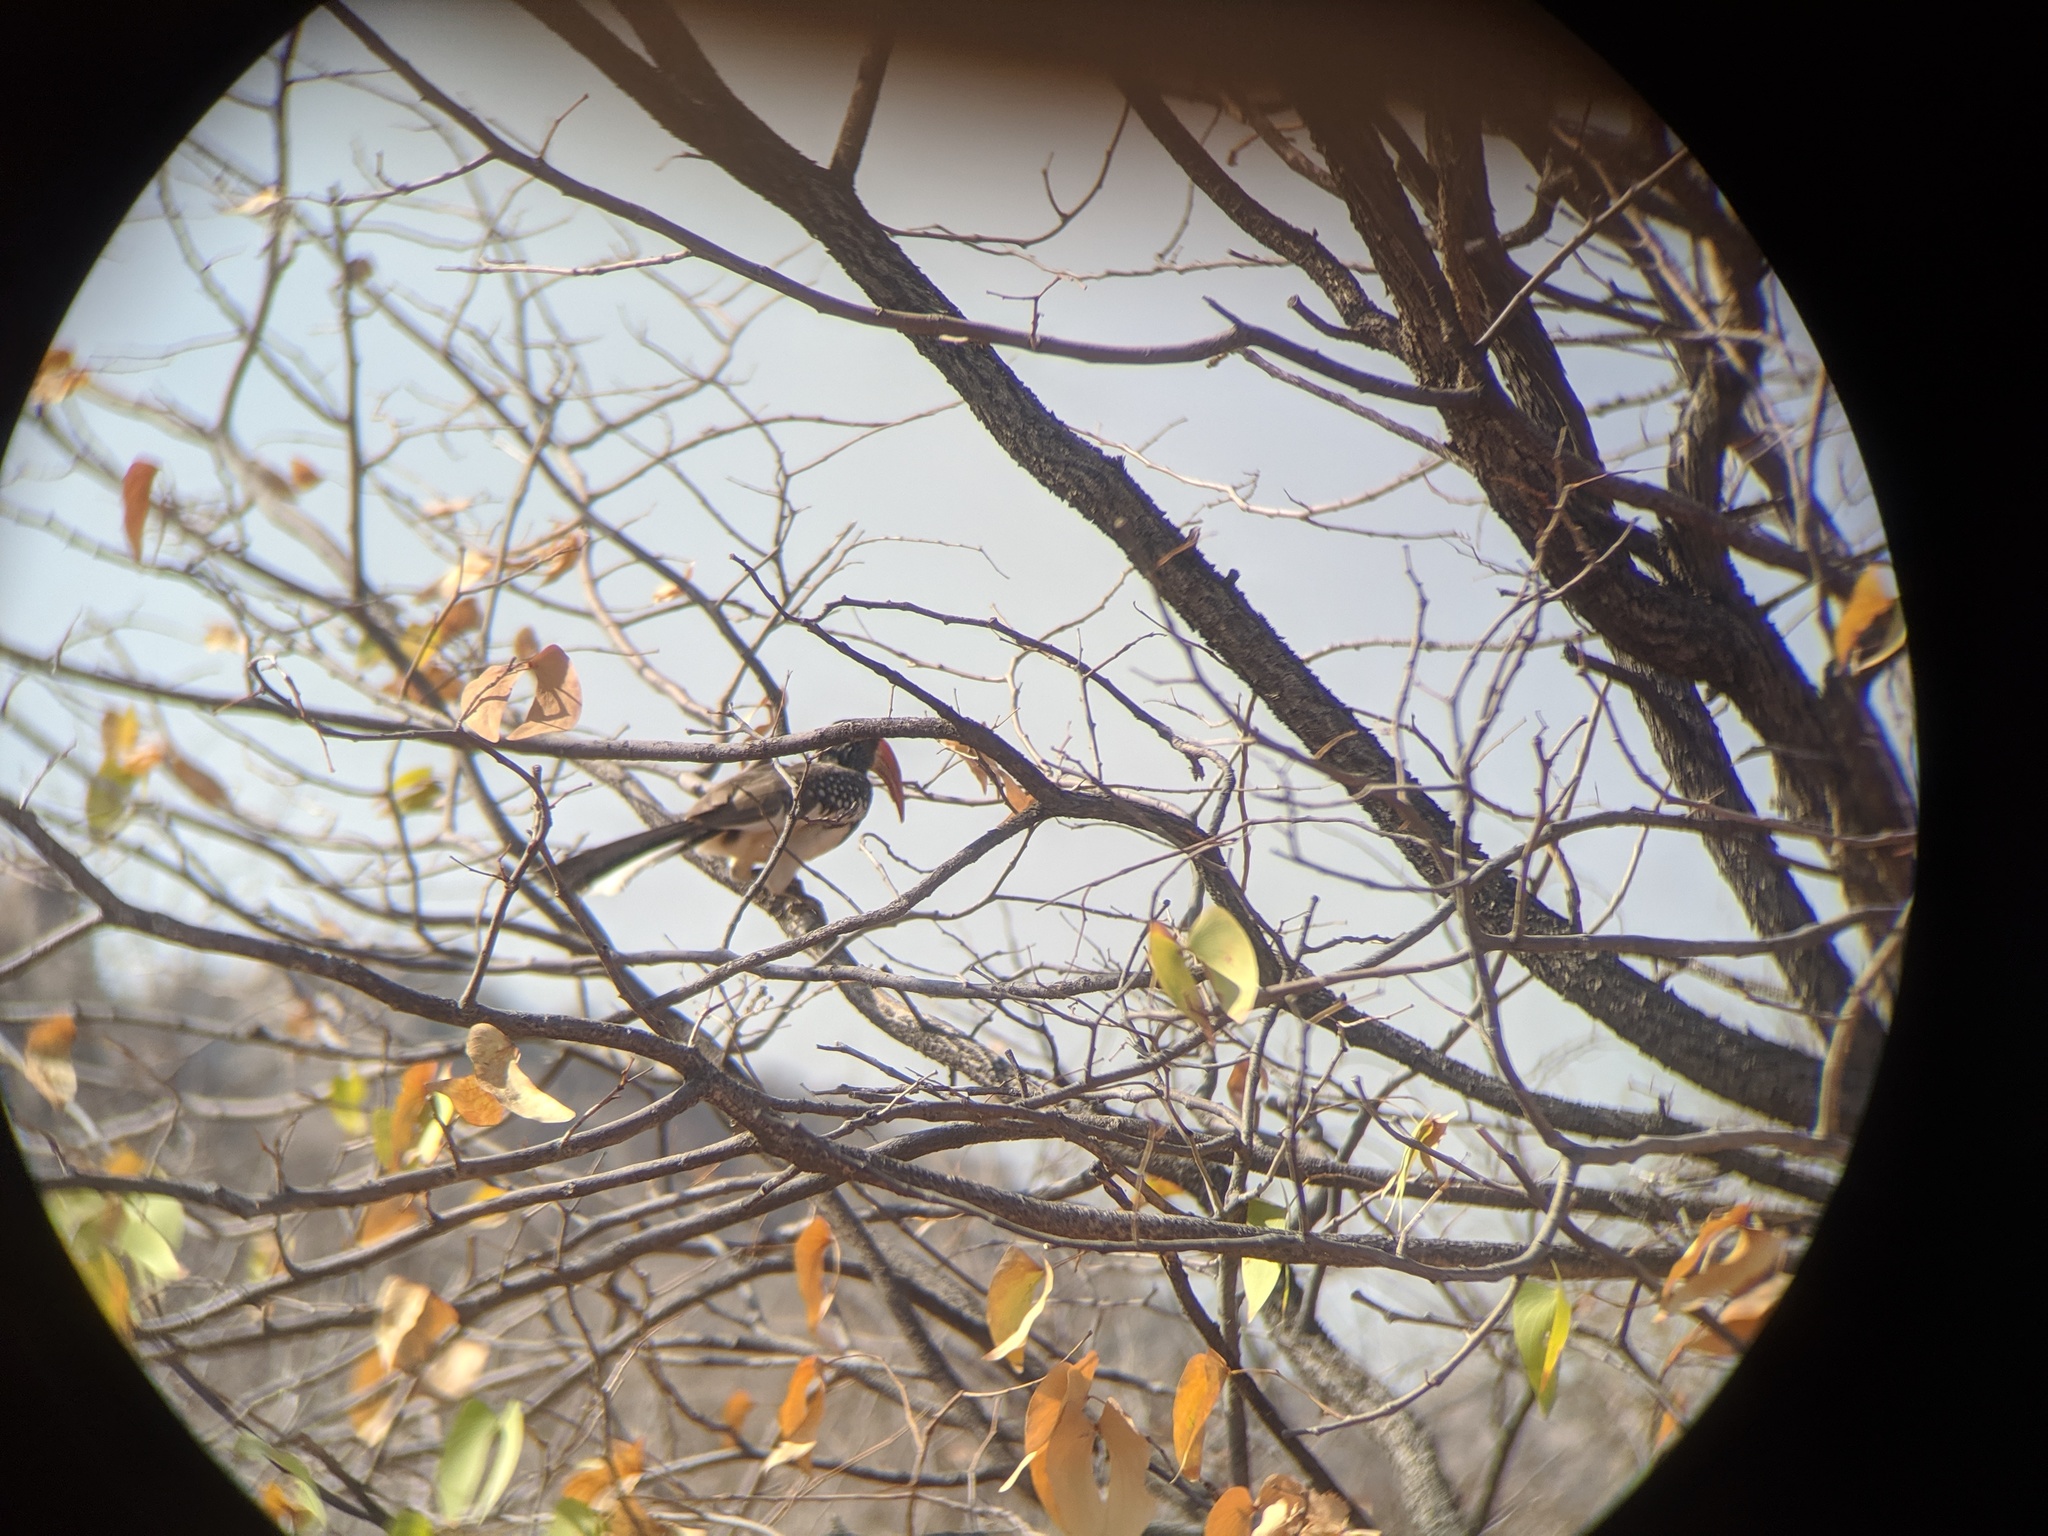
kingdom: Animalia
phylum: Chordata
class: Aves
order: Bucerotiformes
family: Bucerotidae
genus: Tockus
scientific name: Tockus monteiri
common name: Monteiro's hornbill
